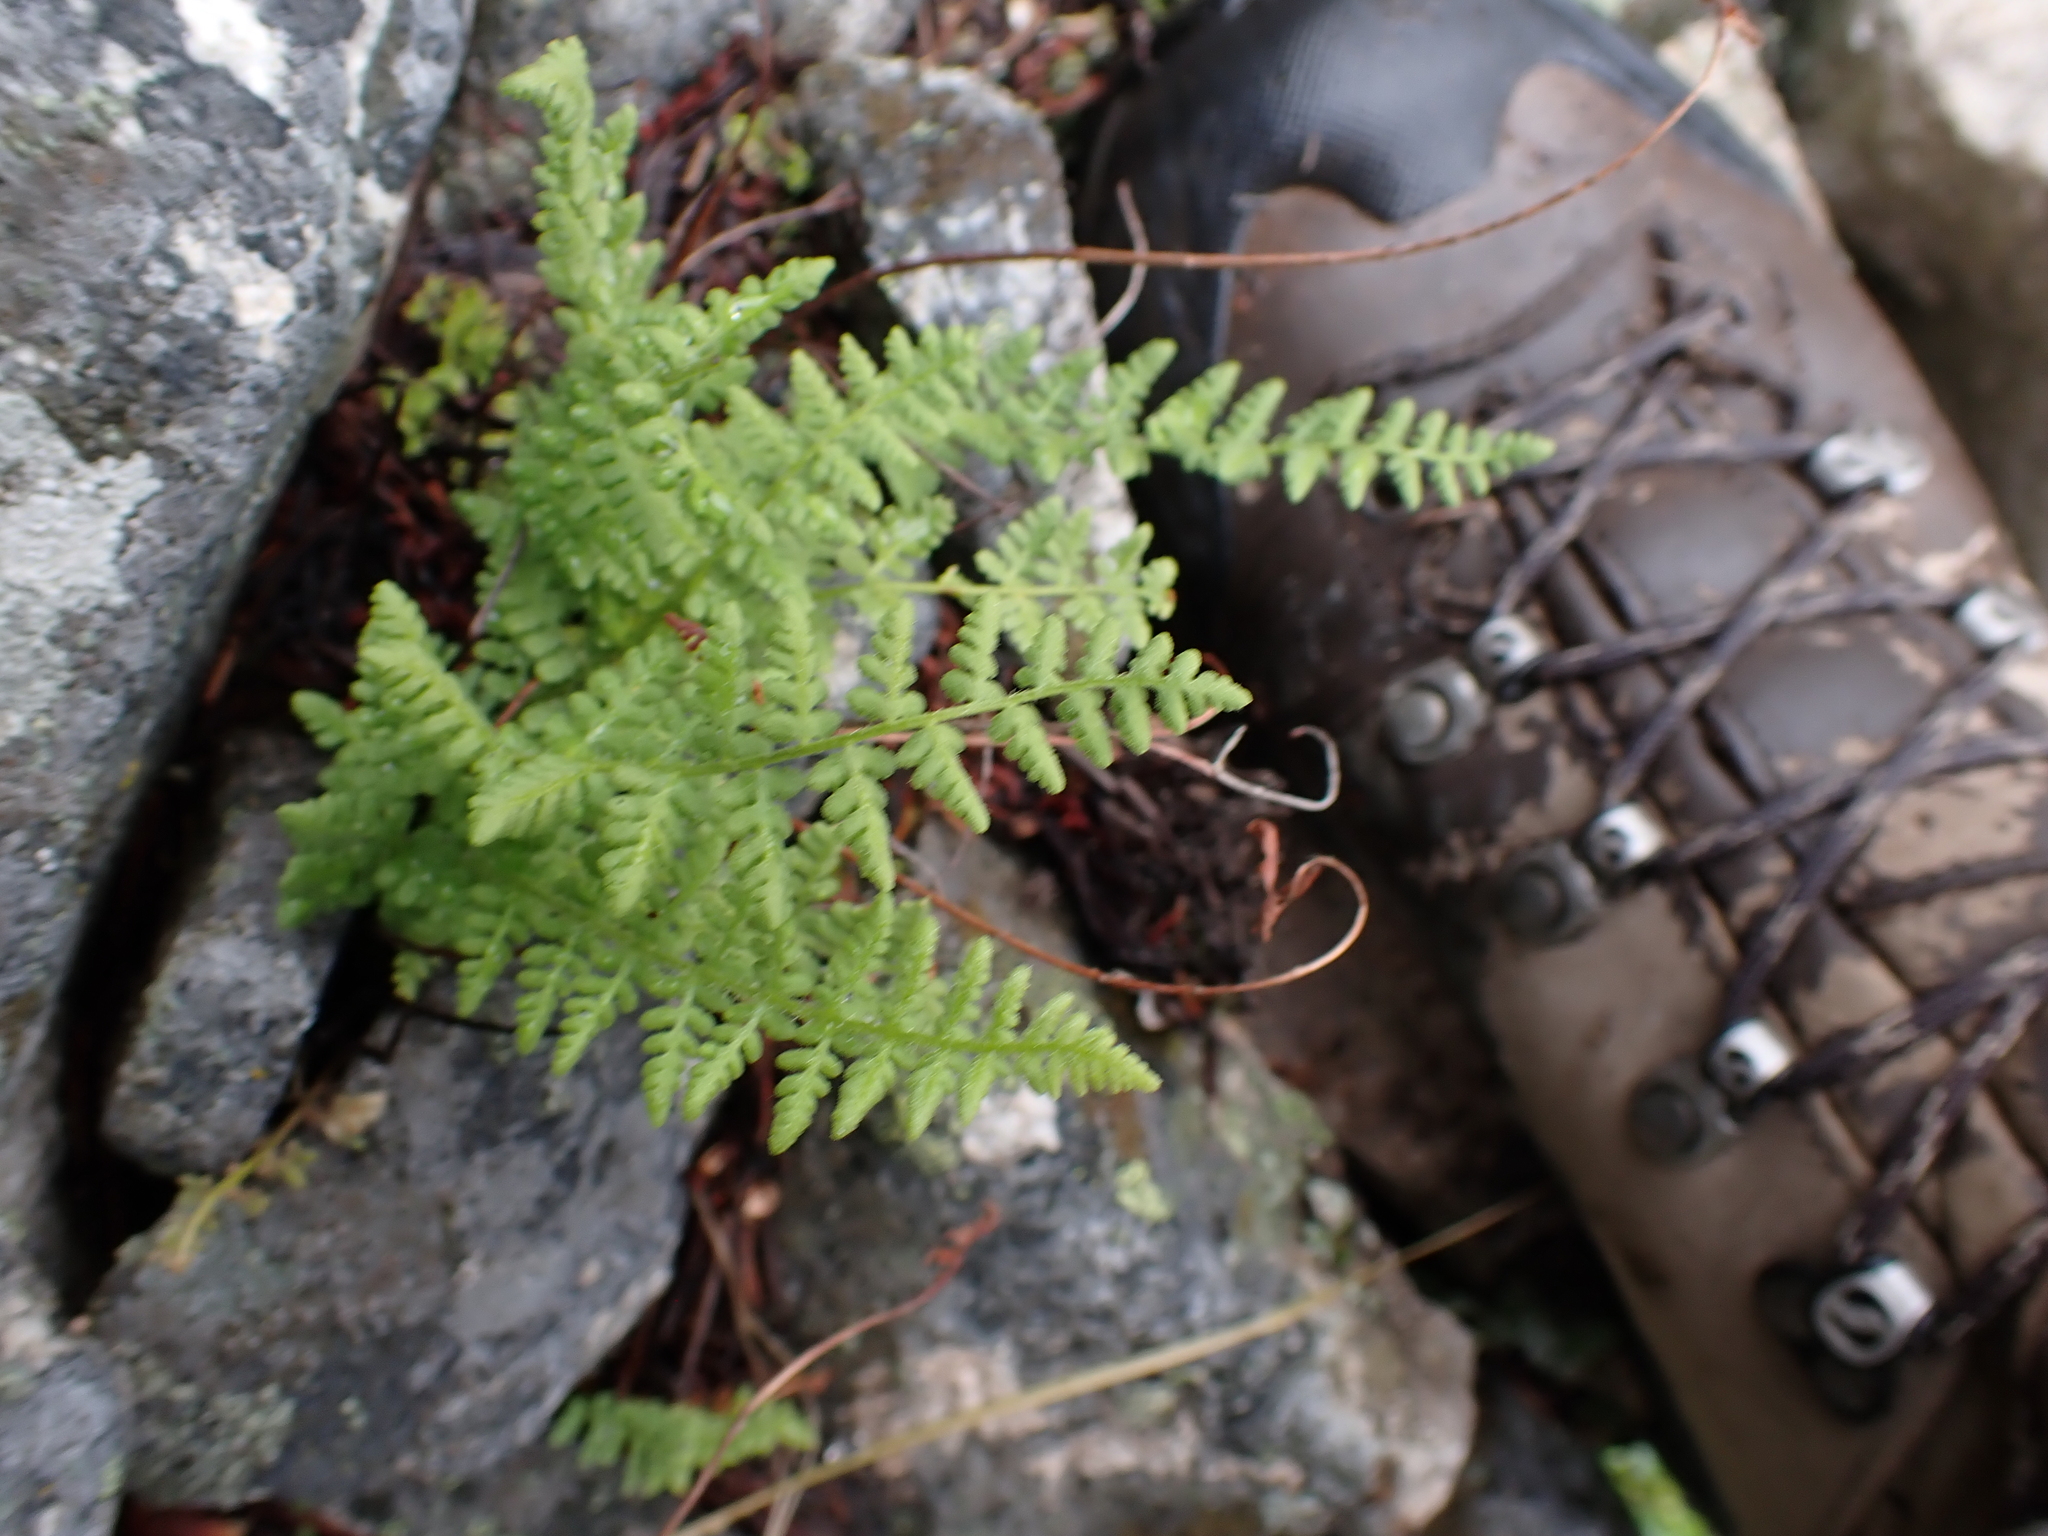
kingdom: Plantae
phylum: Tracheophyta
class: Polypodiopsida
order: Polypodiales
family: Woodsiaceae
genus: Physematium
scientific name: Physematium scopulinum
